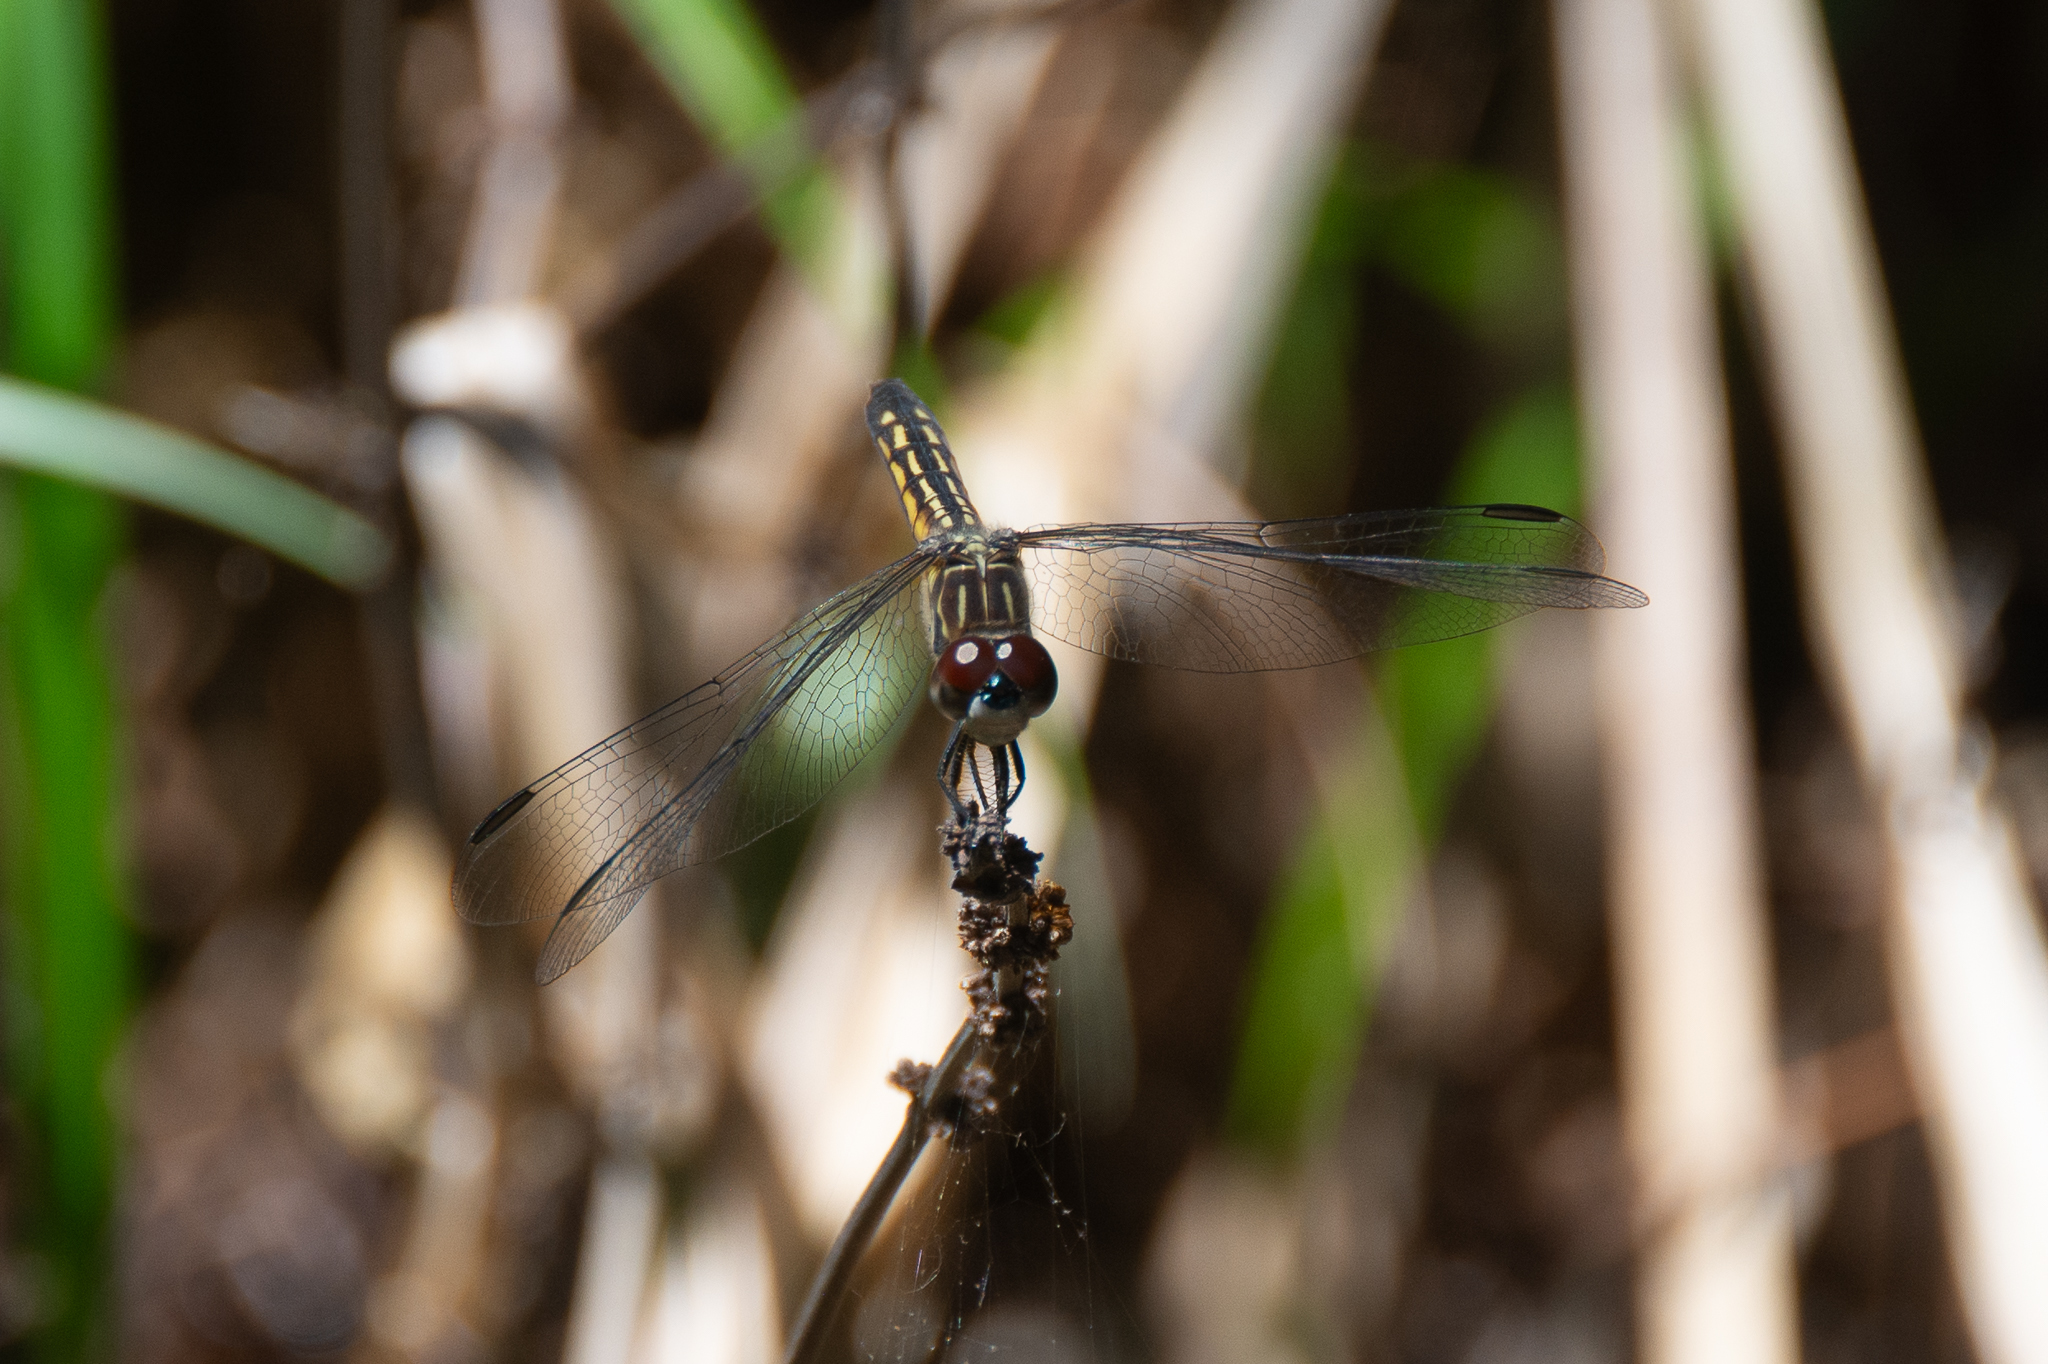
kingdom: Animalia
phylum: Arthropoda
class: Insecta
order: Odonata
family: Libellulidae
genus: Pachydiplax
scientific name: Pachydiplax longipennis
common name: Blue dasher
